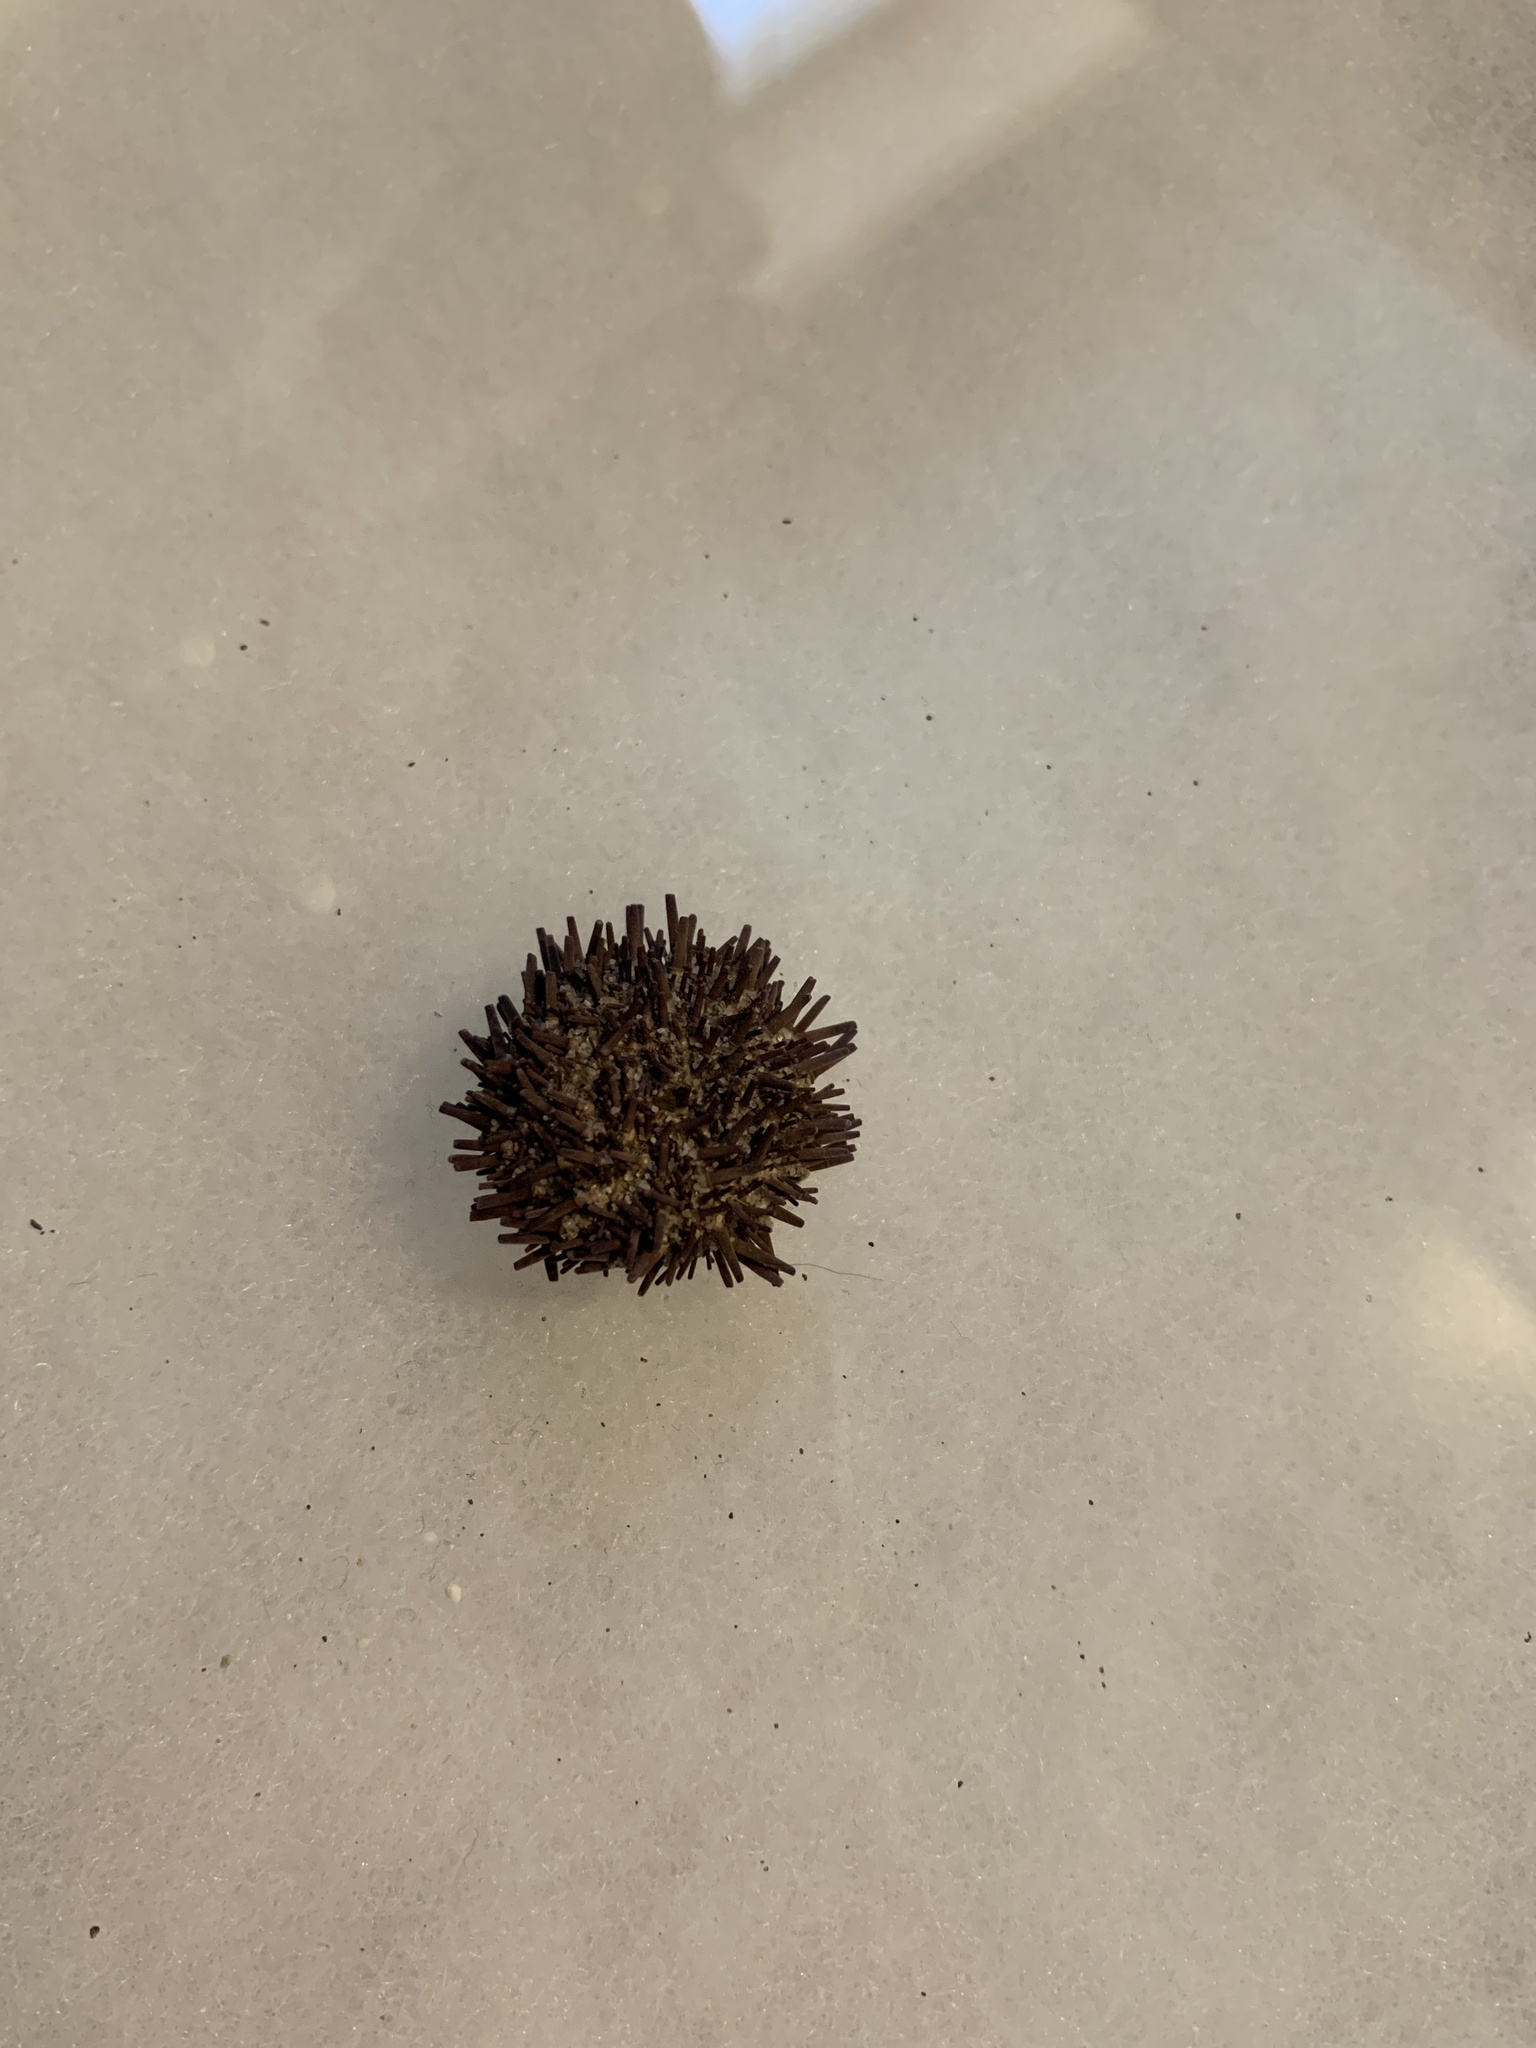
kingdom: Animalia
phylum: Echinodermata
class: Echinoidea
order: Camarodonta
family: Strongylocentrotidae
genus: Strongylocentrotus
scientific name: Strongylocentrotus purpuratus
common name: Purple sea urchin
